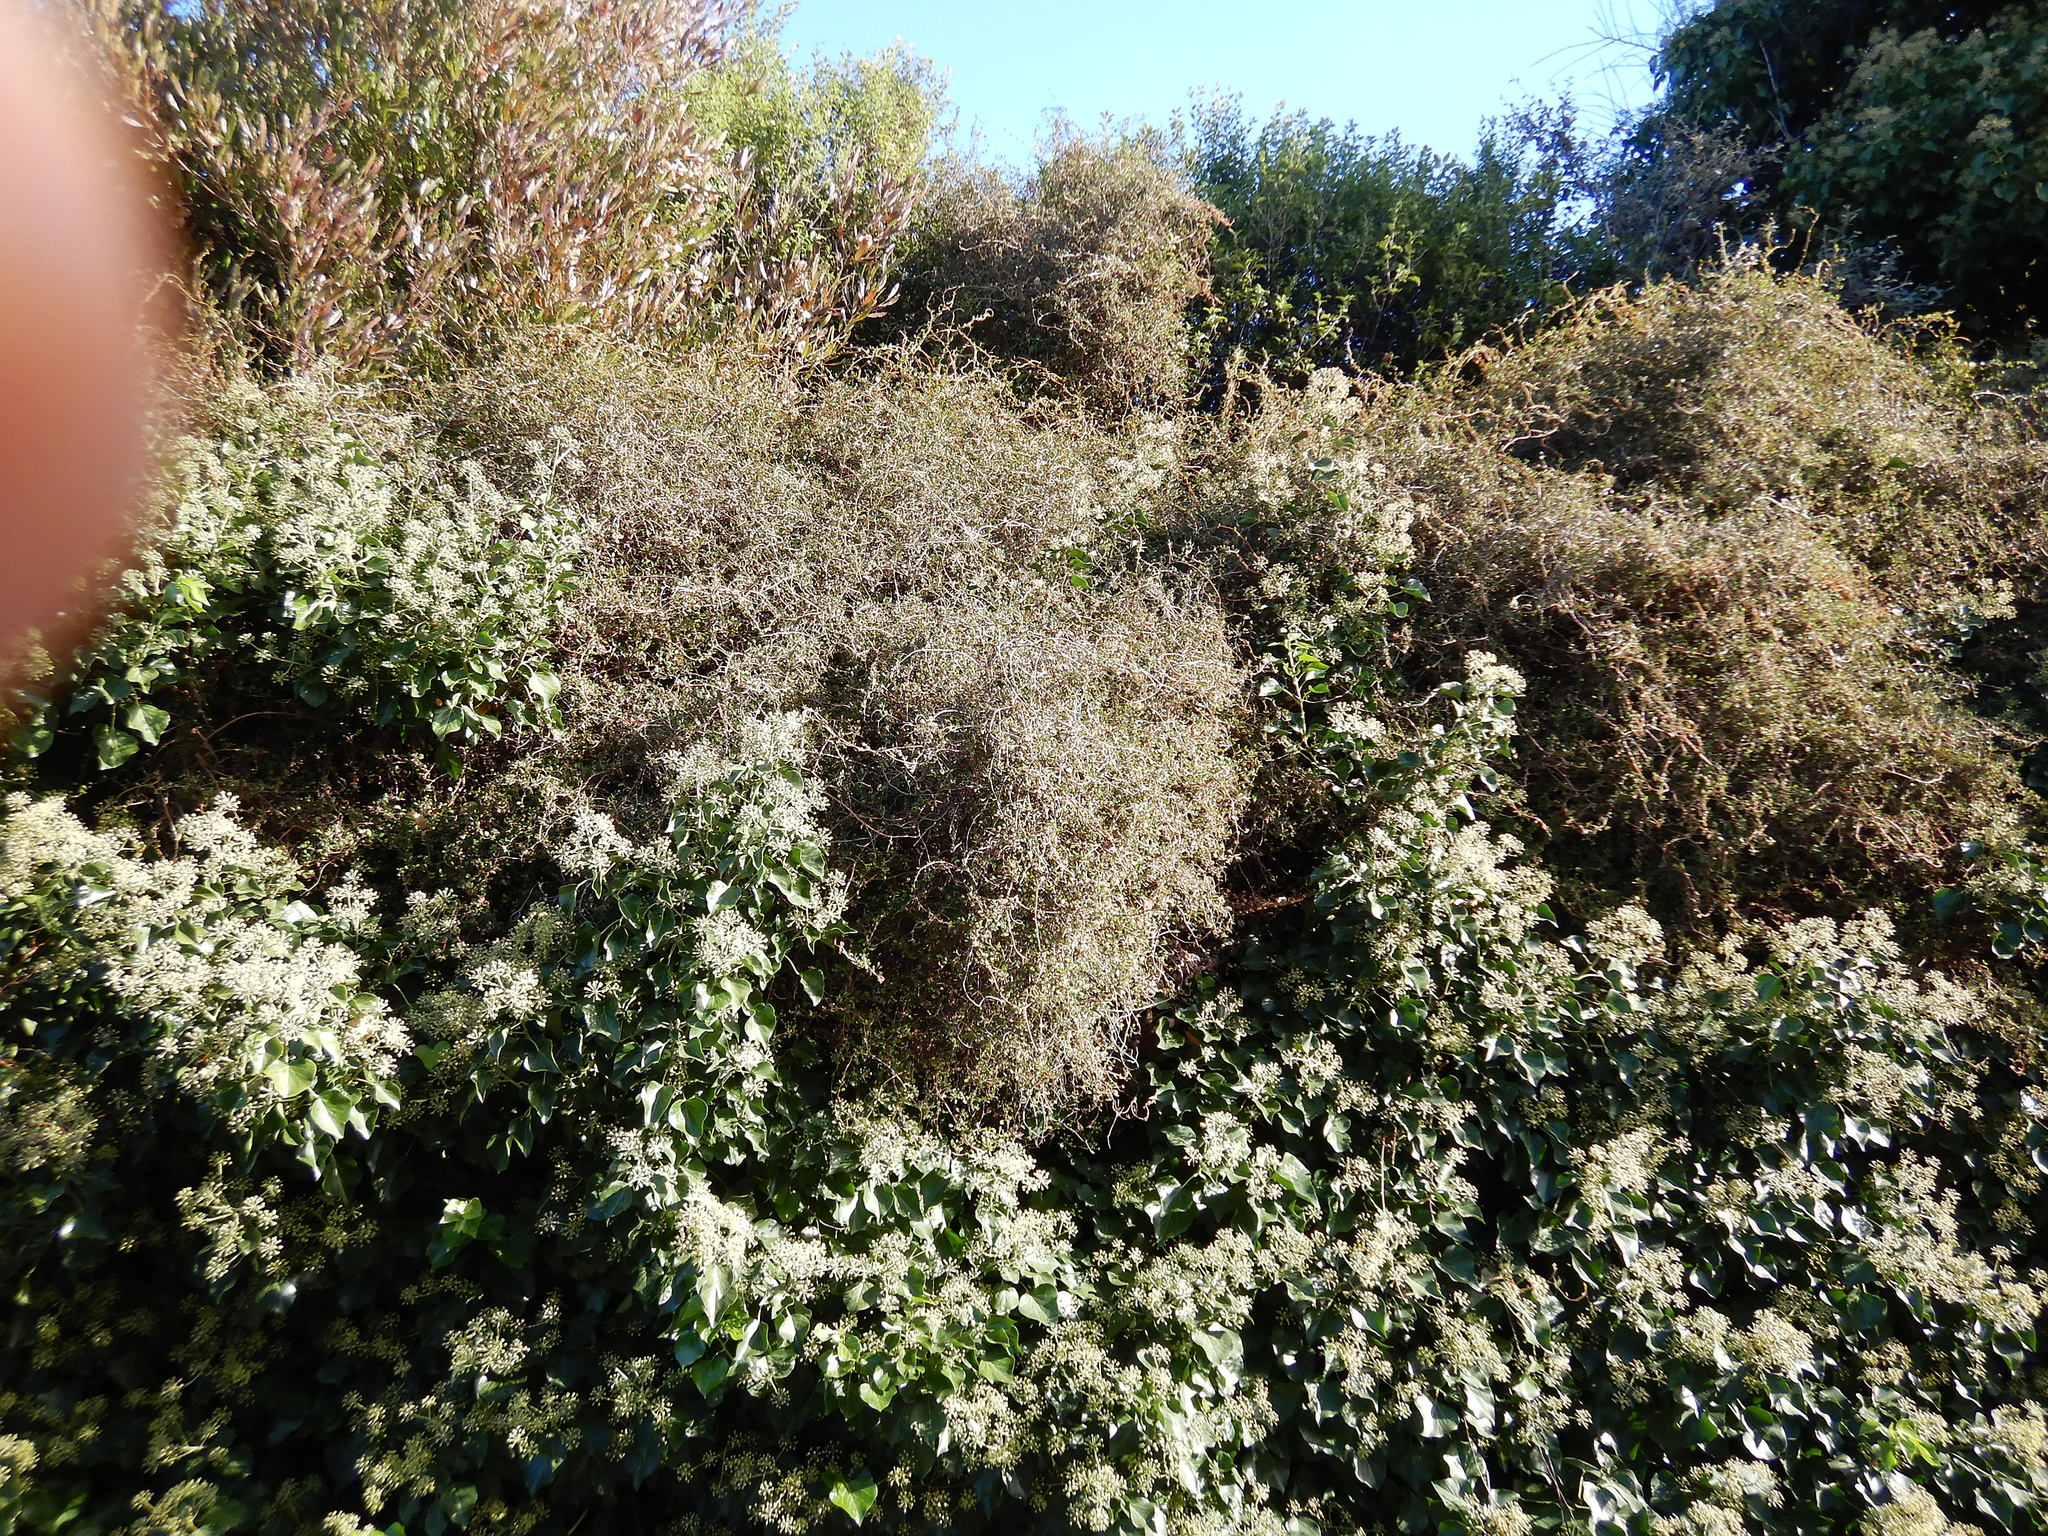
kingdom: Plantae
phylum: Tracheophyta
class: Magnoliopsida
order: Caryophyllales
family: Polygonaceae
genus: Muehlenbeckia
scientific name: Muehlenbeckia complexa
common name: Wireplant
